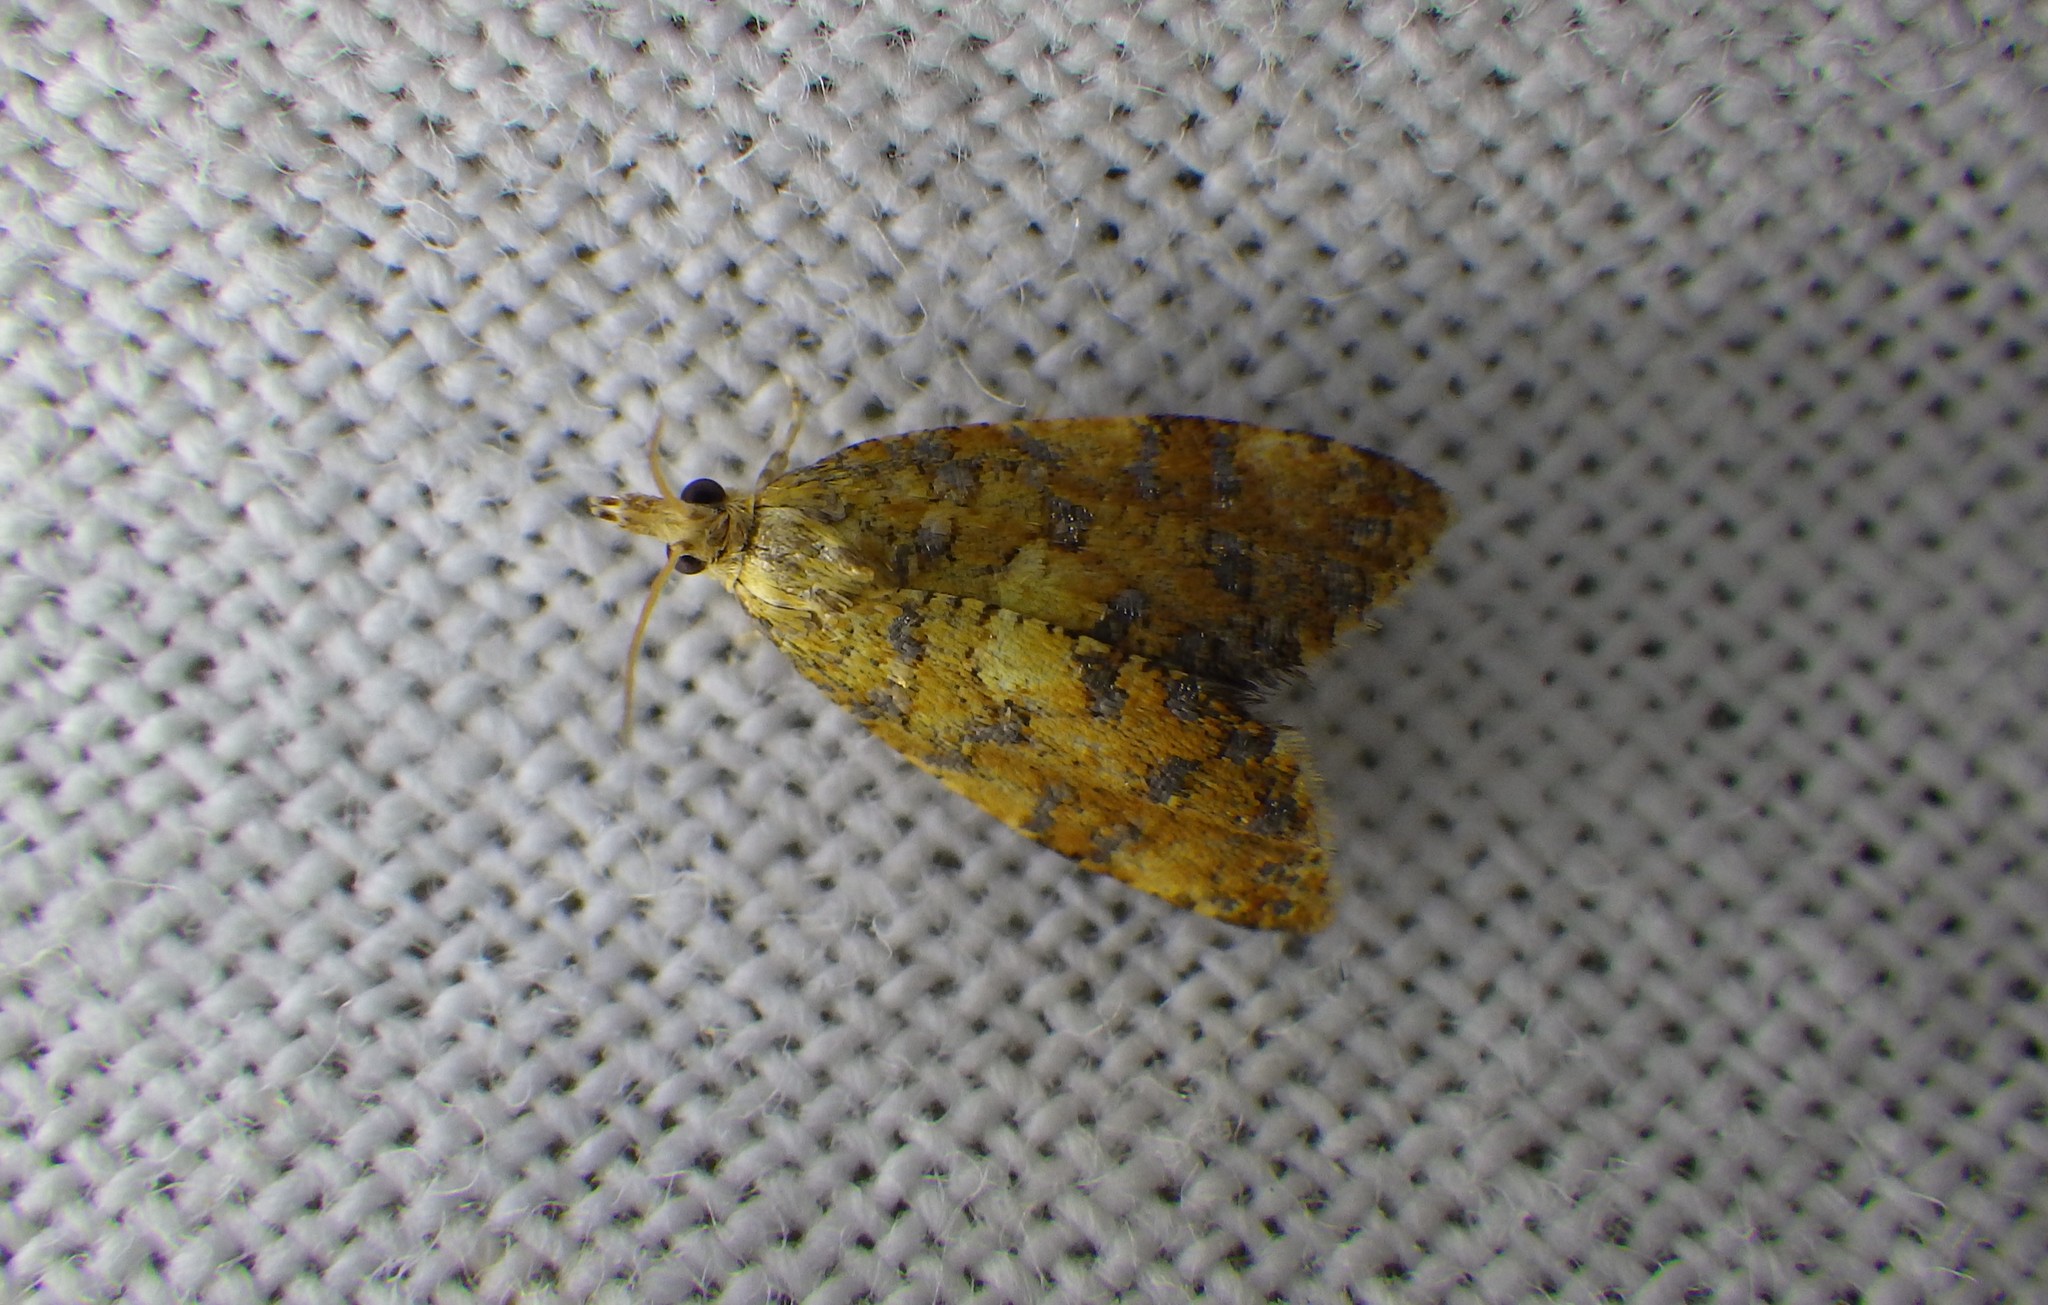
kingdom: Animalia
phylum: Arthropoda
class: Insecta
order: Lepidoptera
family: Tortricidae
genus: Pseudargyrotoza
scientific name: Pseudargyrotoza conwagana
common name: Yellow-spot twist
